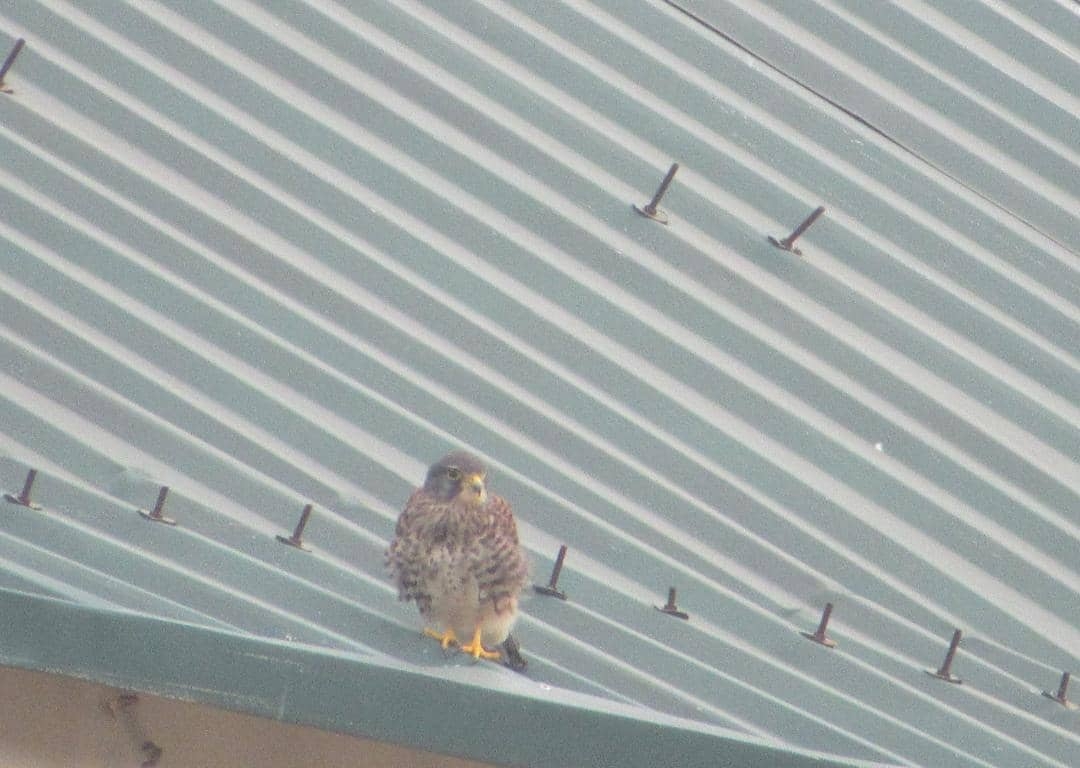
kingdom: Animalia
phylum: Chordata
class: Aves
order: Falconiformes
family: Falconidae
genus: Falco
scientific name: Falco tinnunculus
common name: Common kestrel
